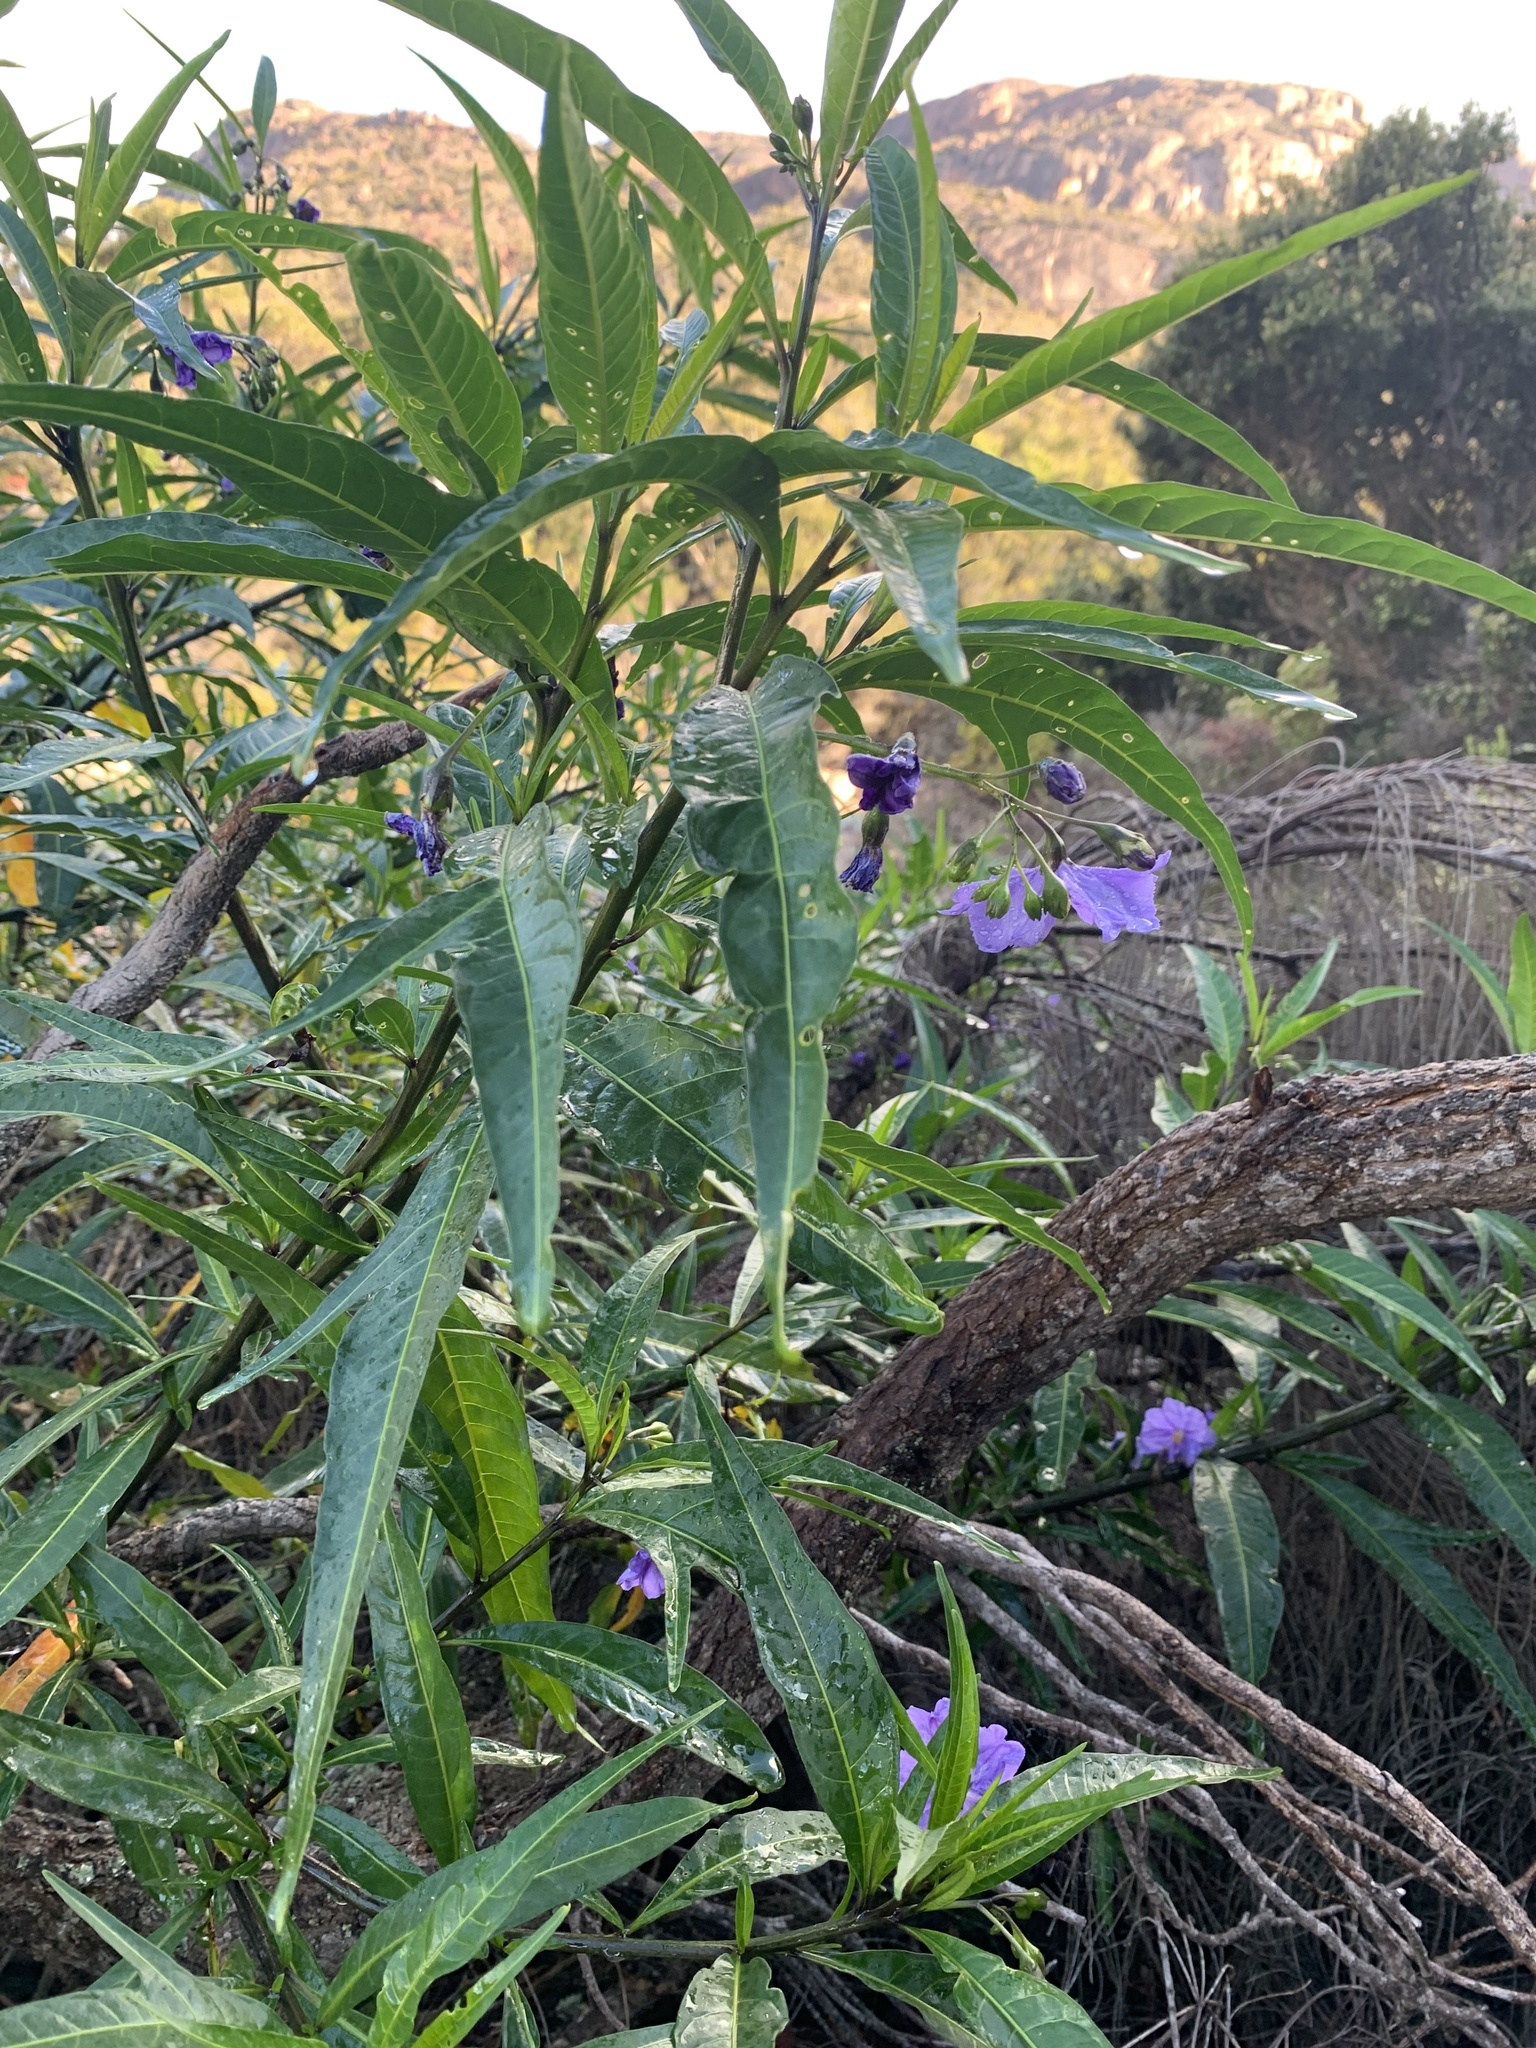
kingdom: Plantae
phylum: Tracheophyta
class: Magnoliopsida
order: Solanales
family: Solanaceae
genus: Solanum
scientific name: Solanum laciniatum
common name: Kangaroo-apple
